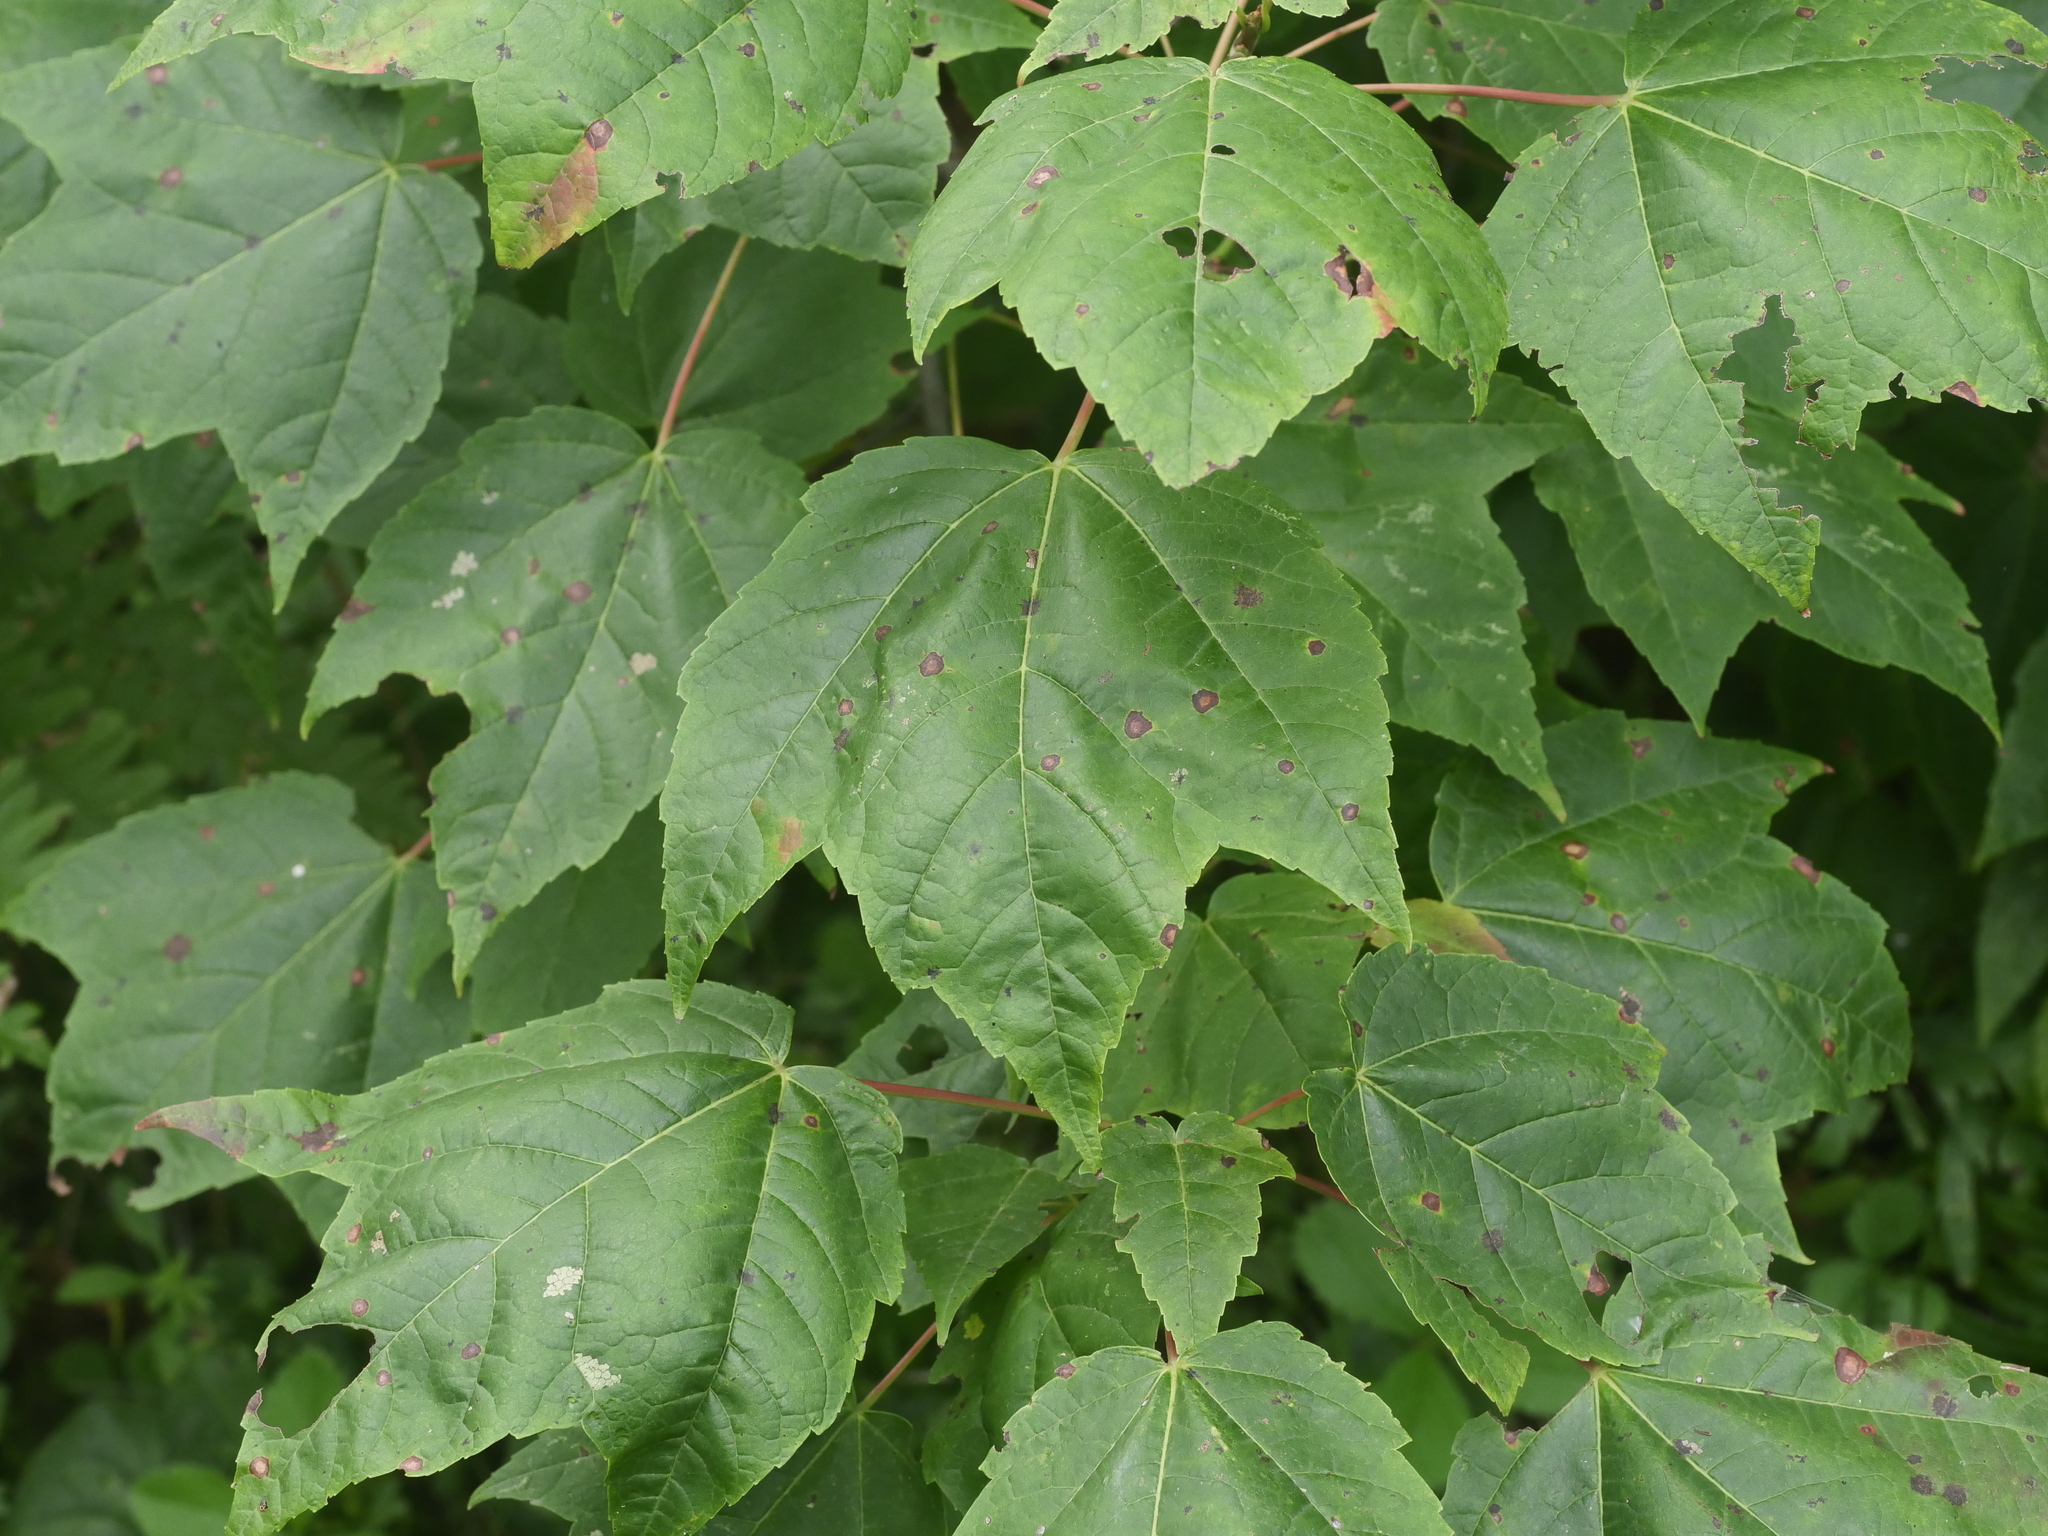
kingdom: Plantae
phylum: Tracheophyta
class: Magnoliopsida
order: Sapindales
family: Sapindaceae
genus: Acer
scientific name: Acer rubrum
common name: Red maple
